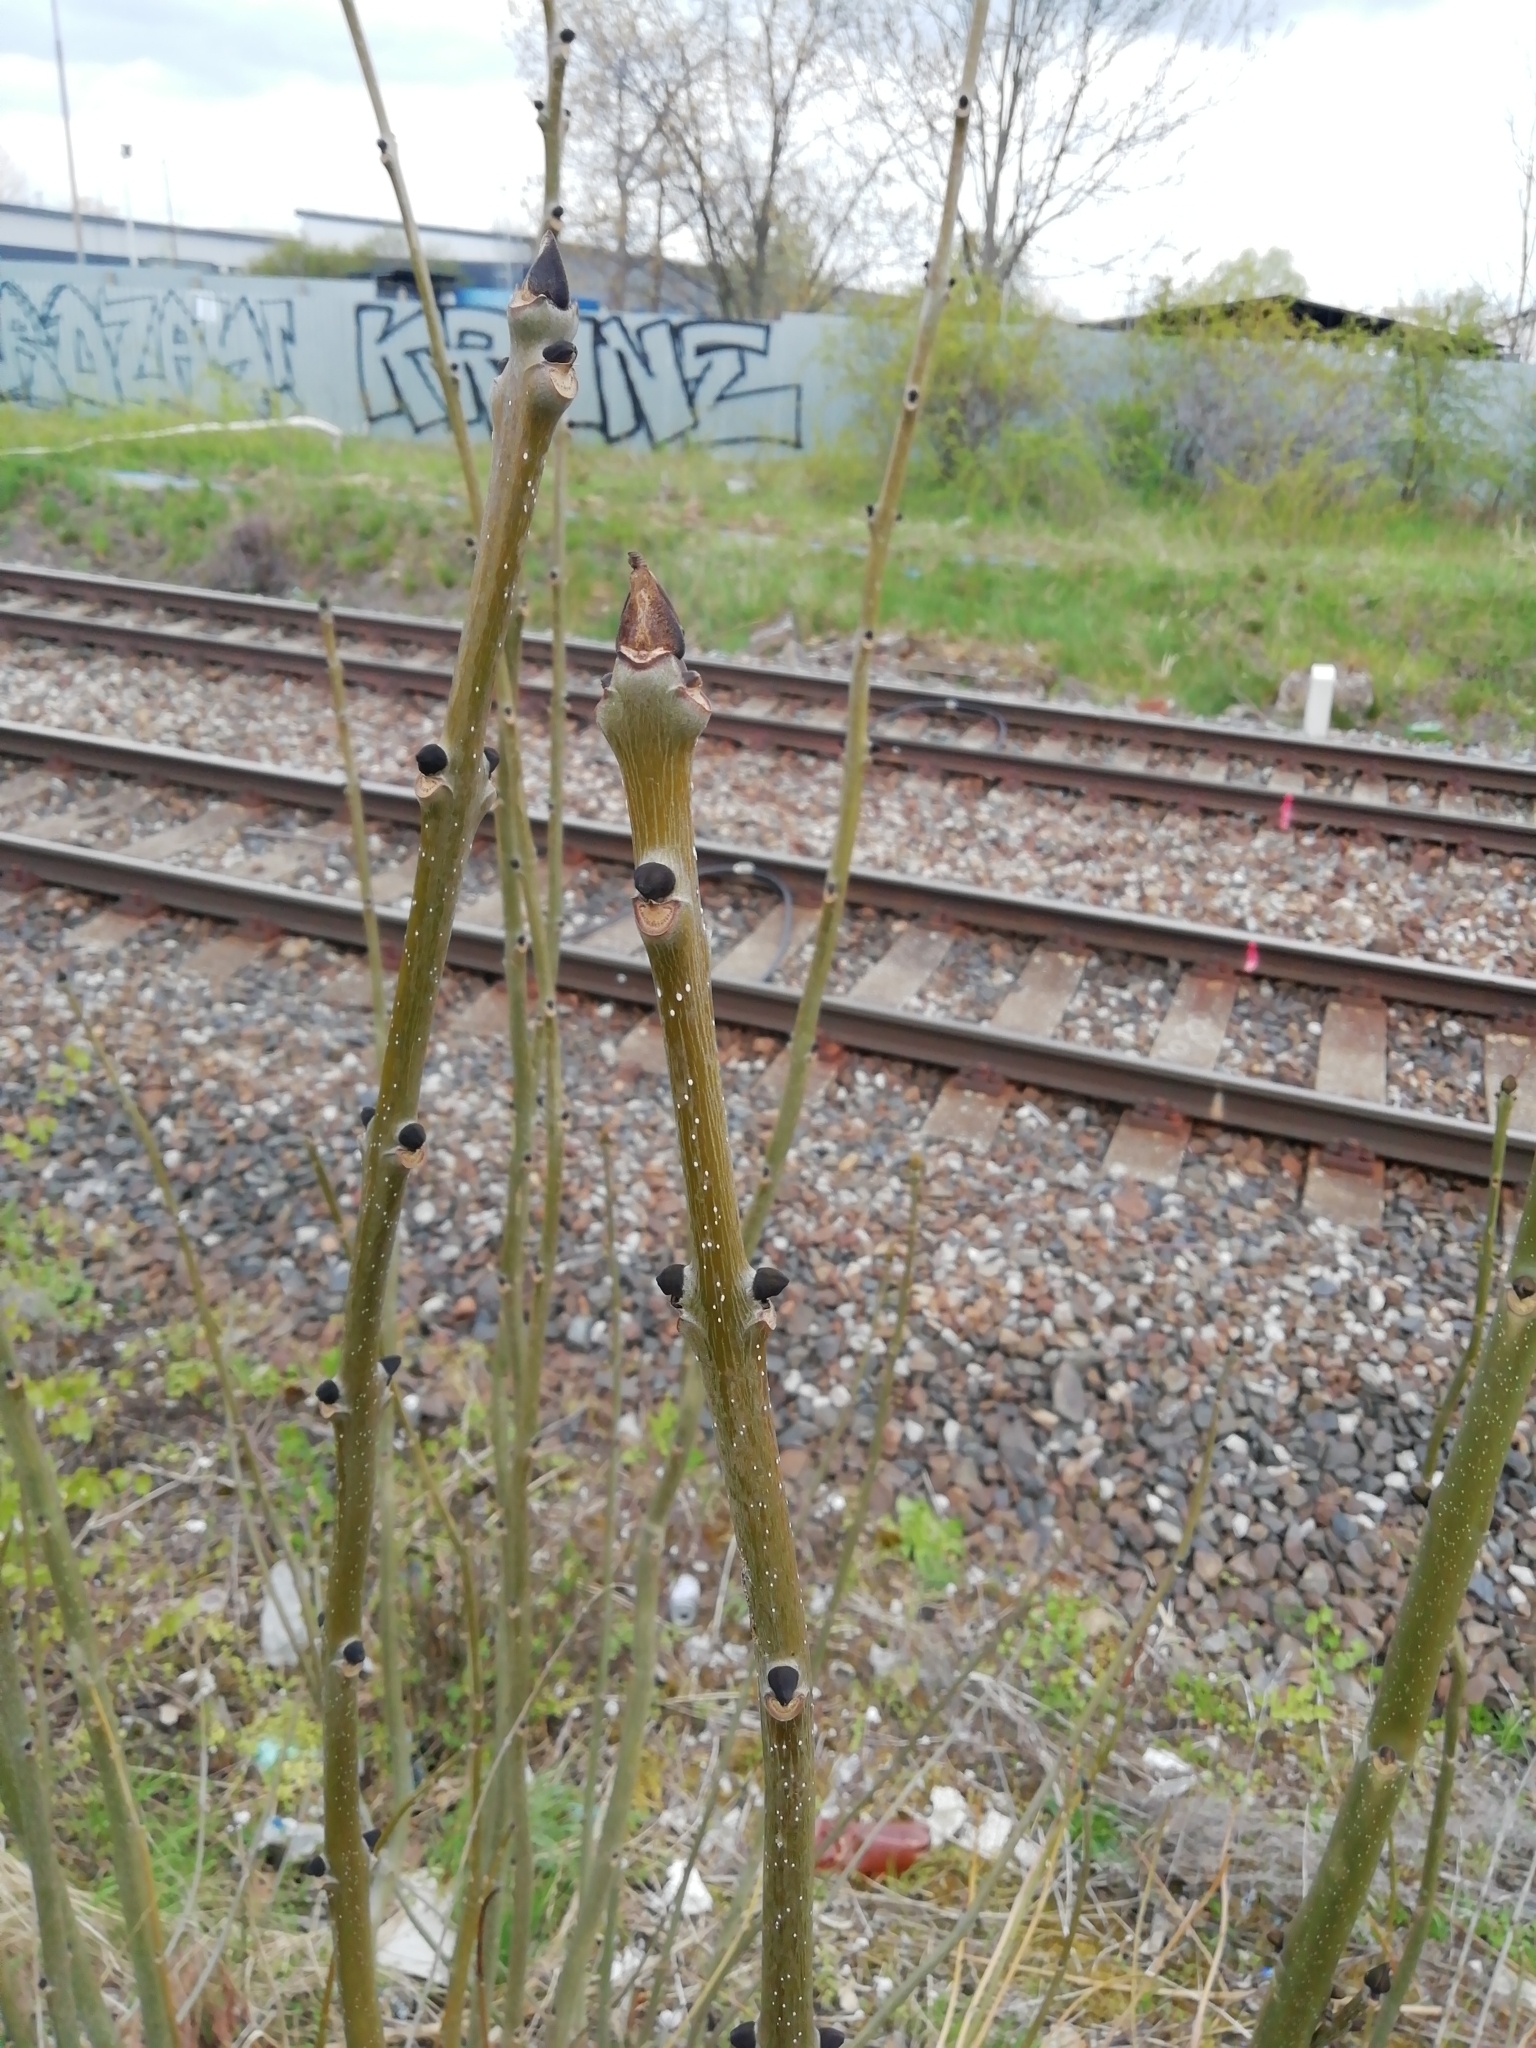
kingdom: Plantae
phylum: Tracheophyta
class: Magnoliopsida
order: Lamiales
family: Oleaceae
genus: Fraxinus
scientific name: Fraxinus excelsior
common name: European ash
